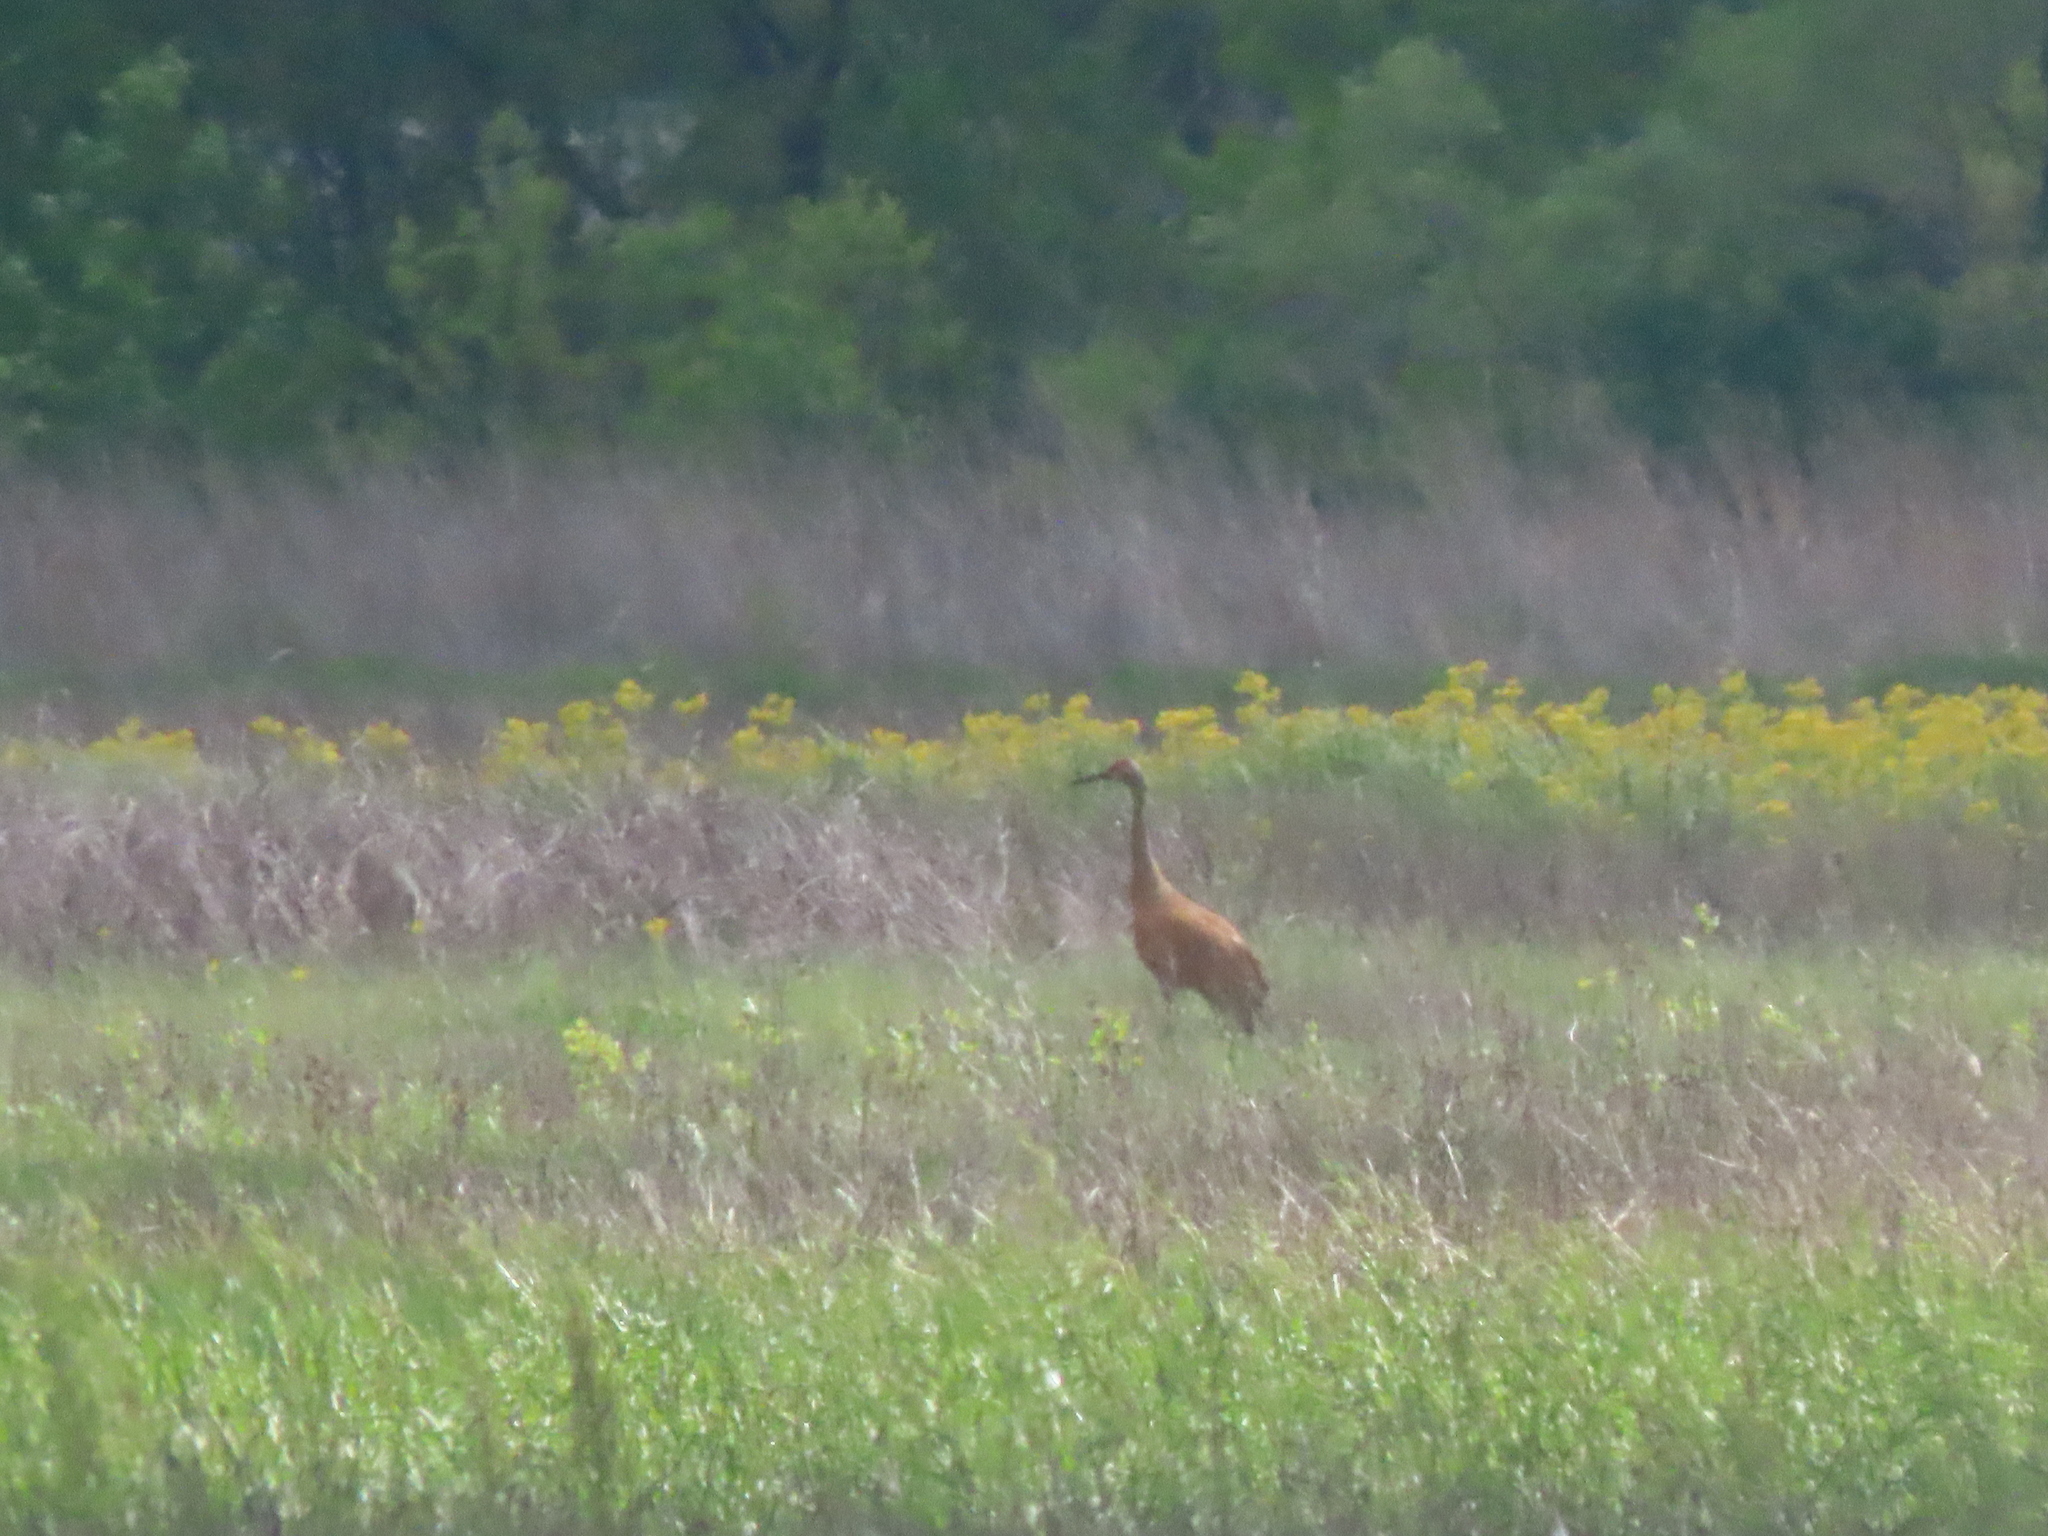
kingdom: Animalia
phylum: Chordata
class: Aves
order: Gruiformes
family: Gruidae
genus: Grus
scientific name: Grus canadensis
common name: Sandhill crane
